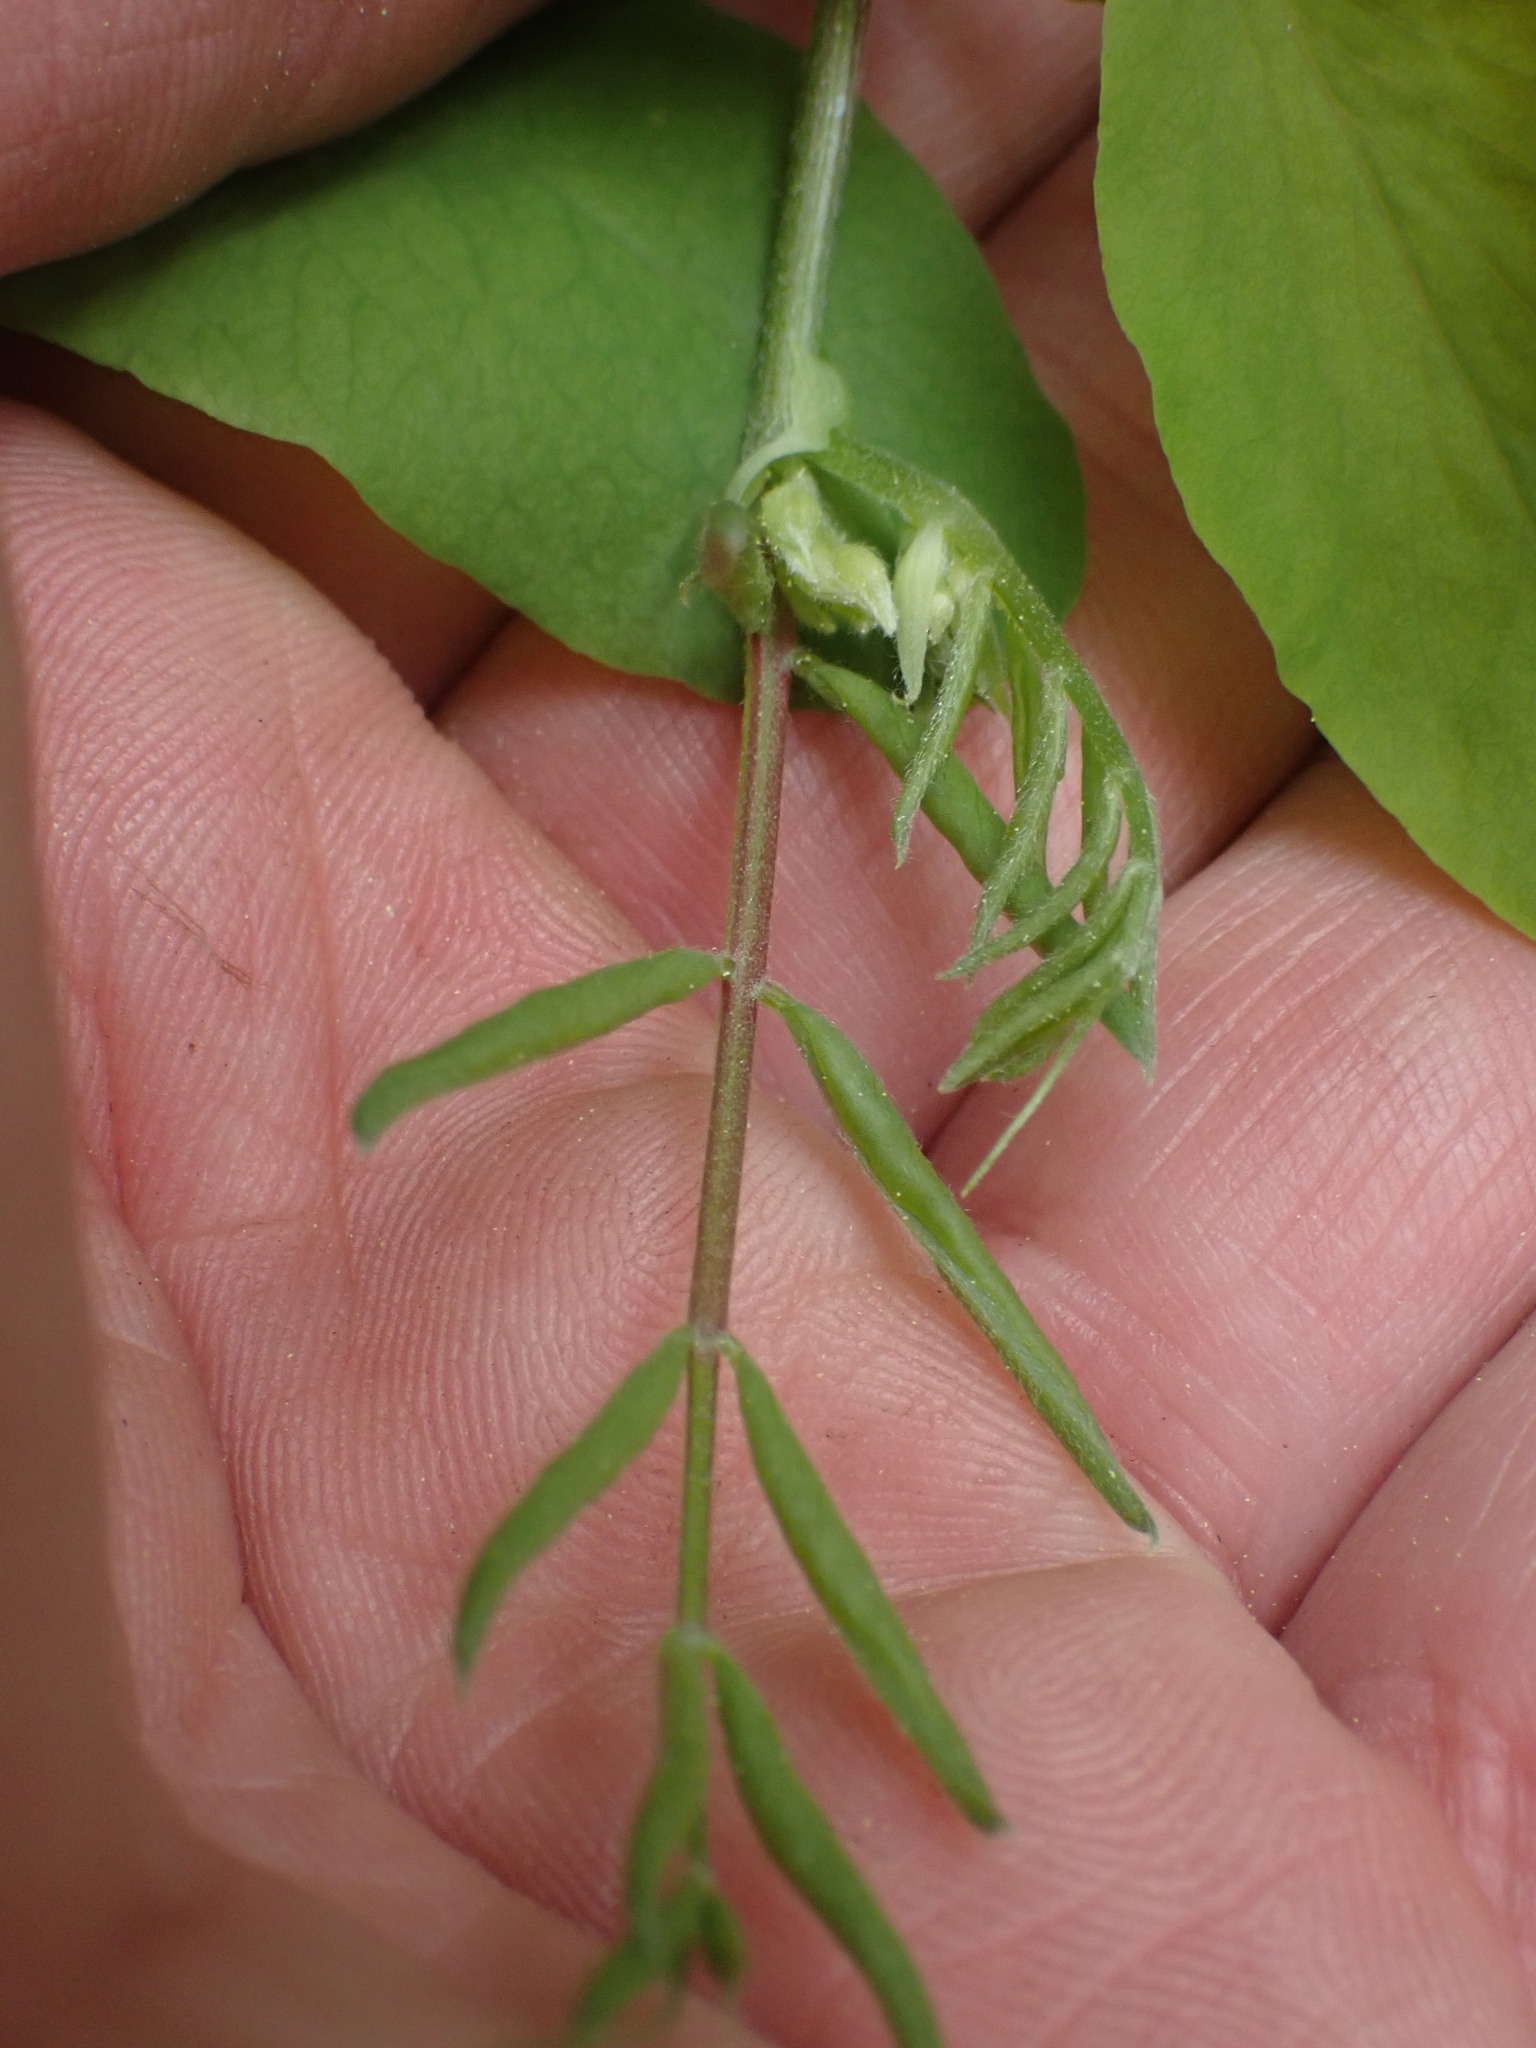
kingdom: Plantae
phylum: Tracheophyta
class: Magnoliopsida
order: Fabales
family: Fabaceae
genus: Lathyrus
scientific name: Lathyrus nevadensis
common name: Sierra nevada peavine
